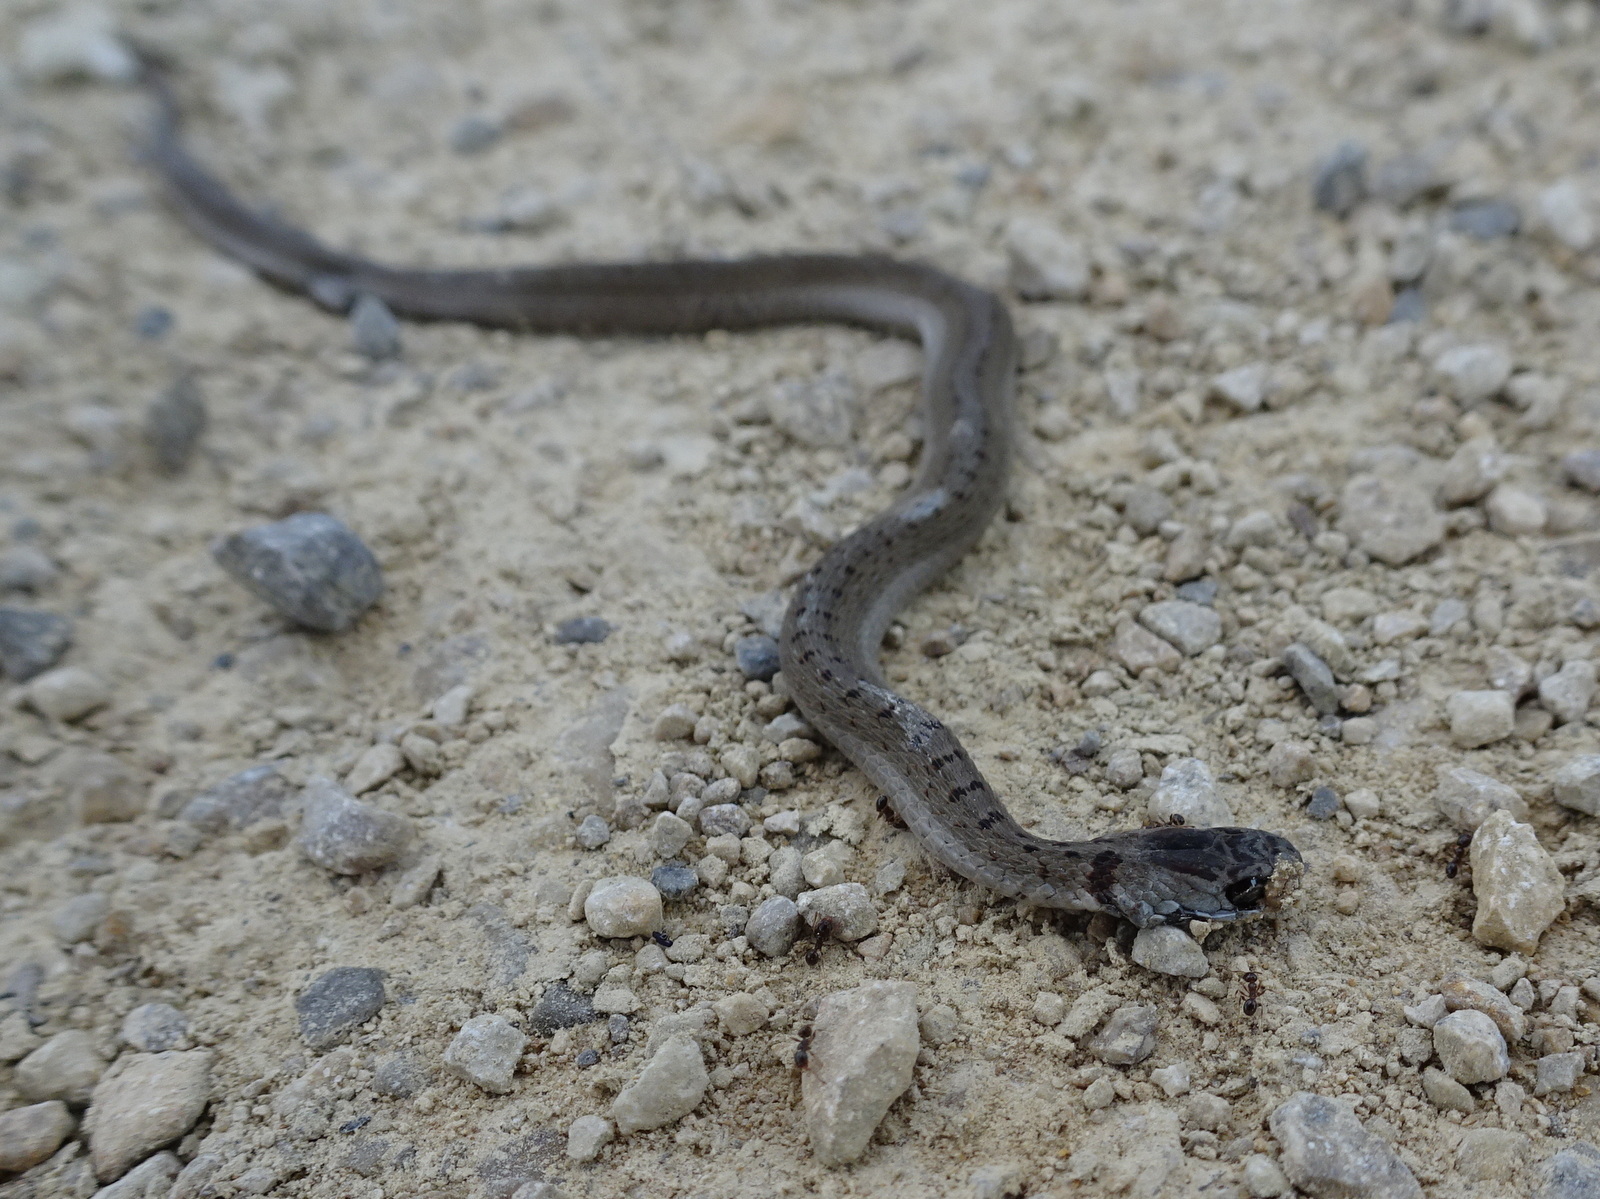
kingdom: Animalia
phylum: Chordata
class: Squamata
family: Colubridae
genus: Storeria
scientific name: Storeria dekayi
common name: (dekay’s) brown snake
